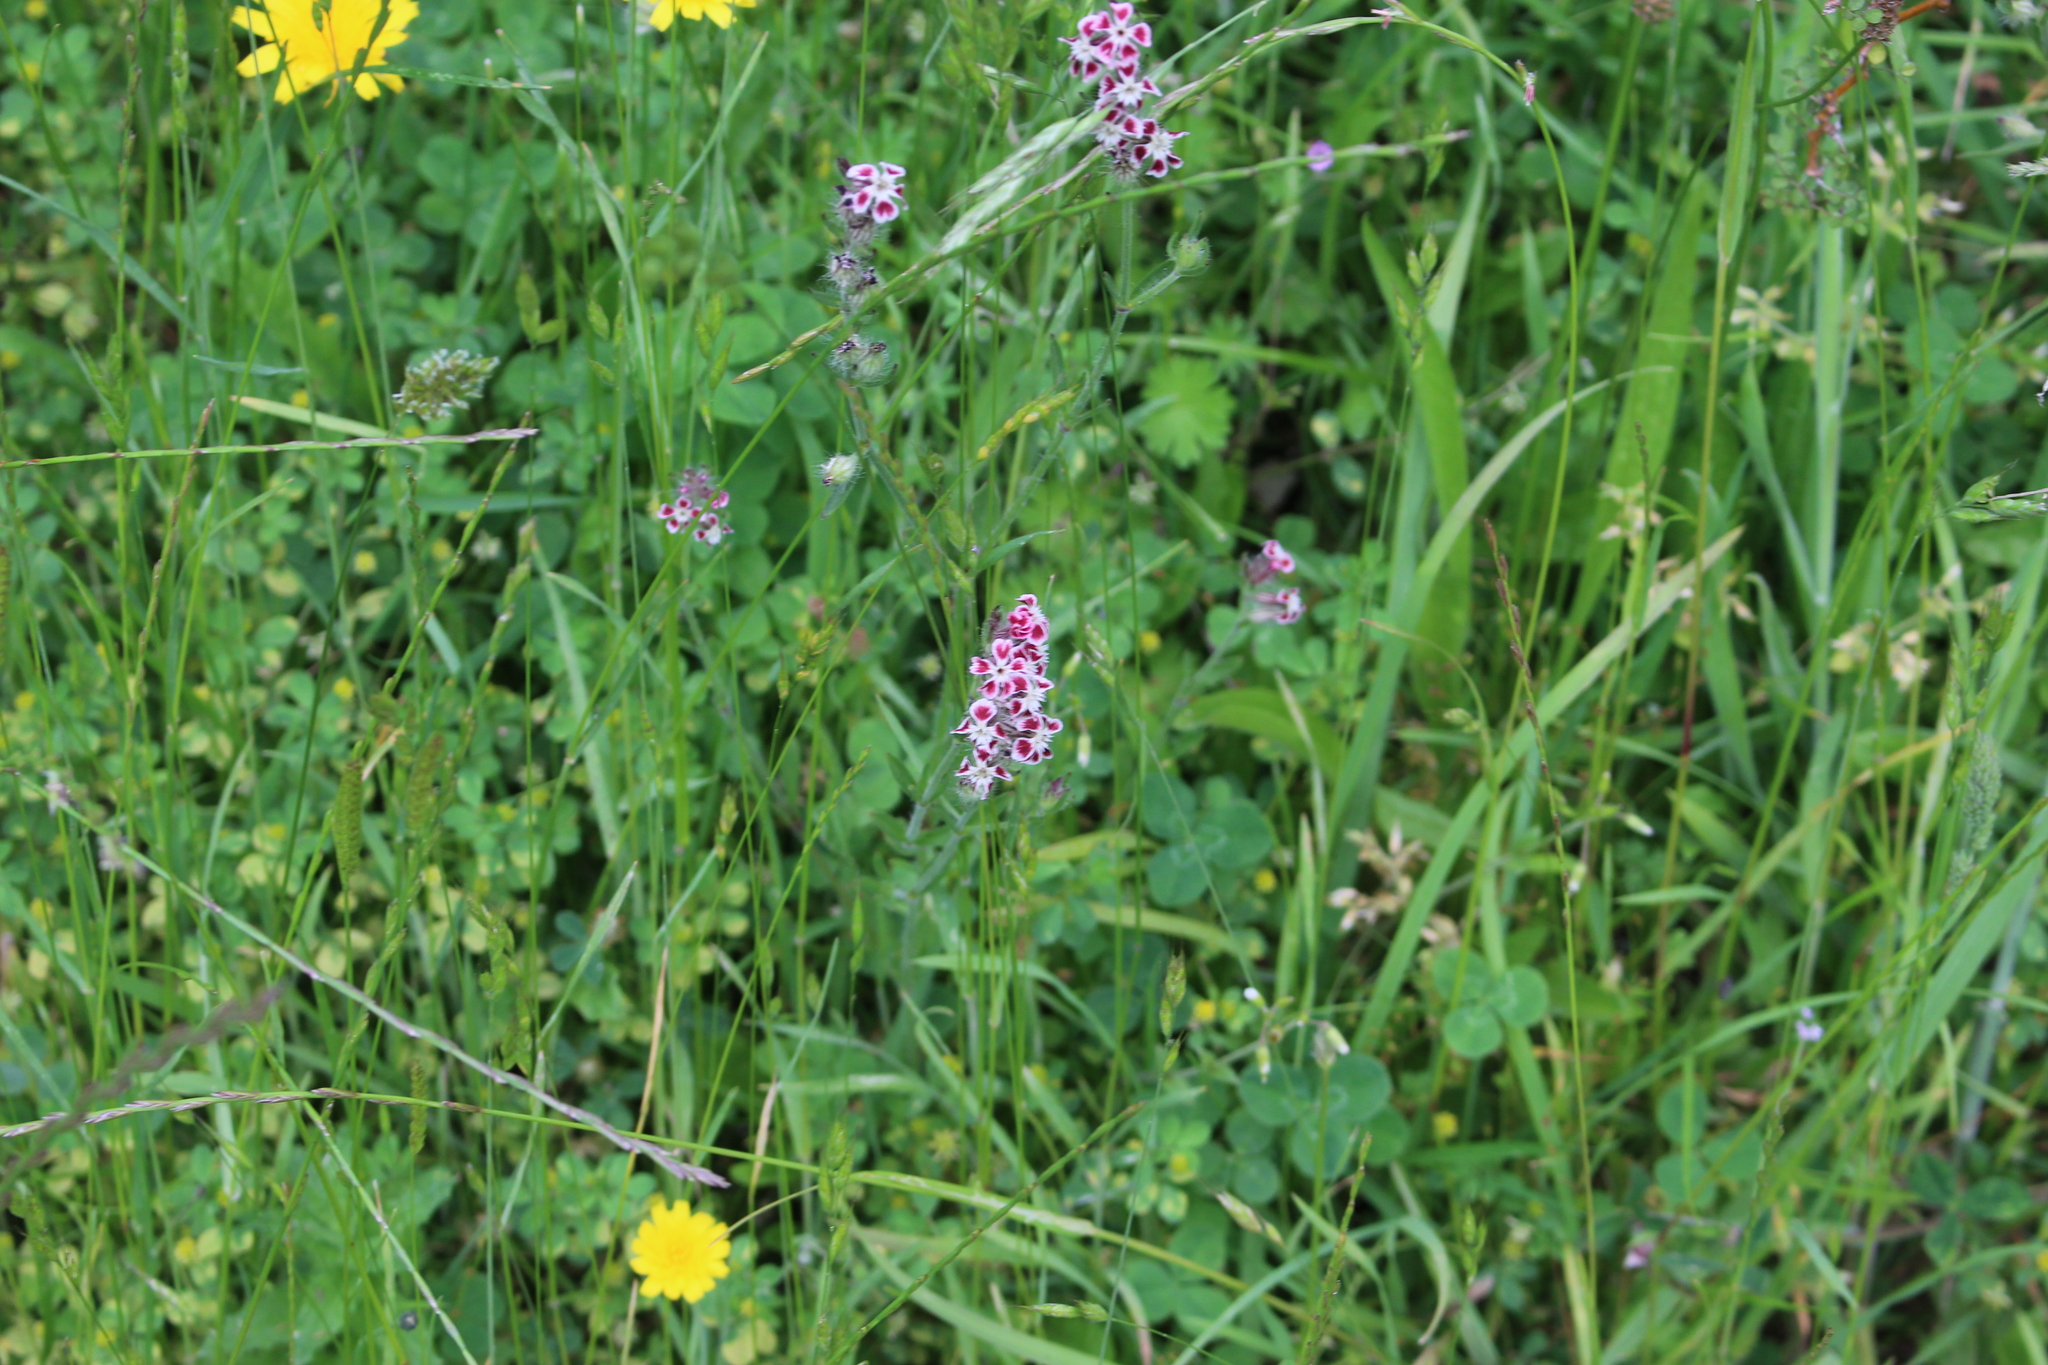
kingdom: Plantae
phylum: Tracheophyta
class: Magnoliopsida
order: Caryophyllales
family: Caryophyllaceae
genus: Silene
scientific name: Silene gallica
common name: Small-flowered catchfly
